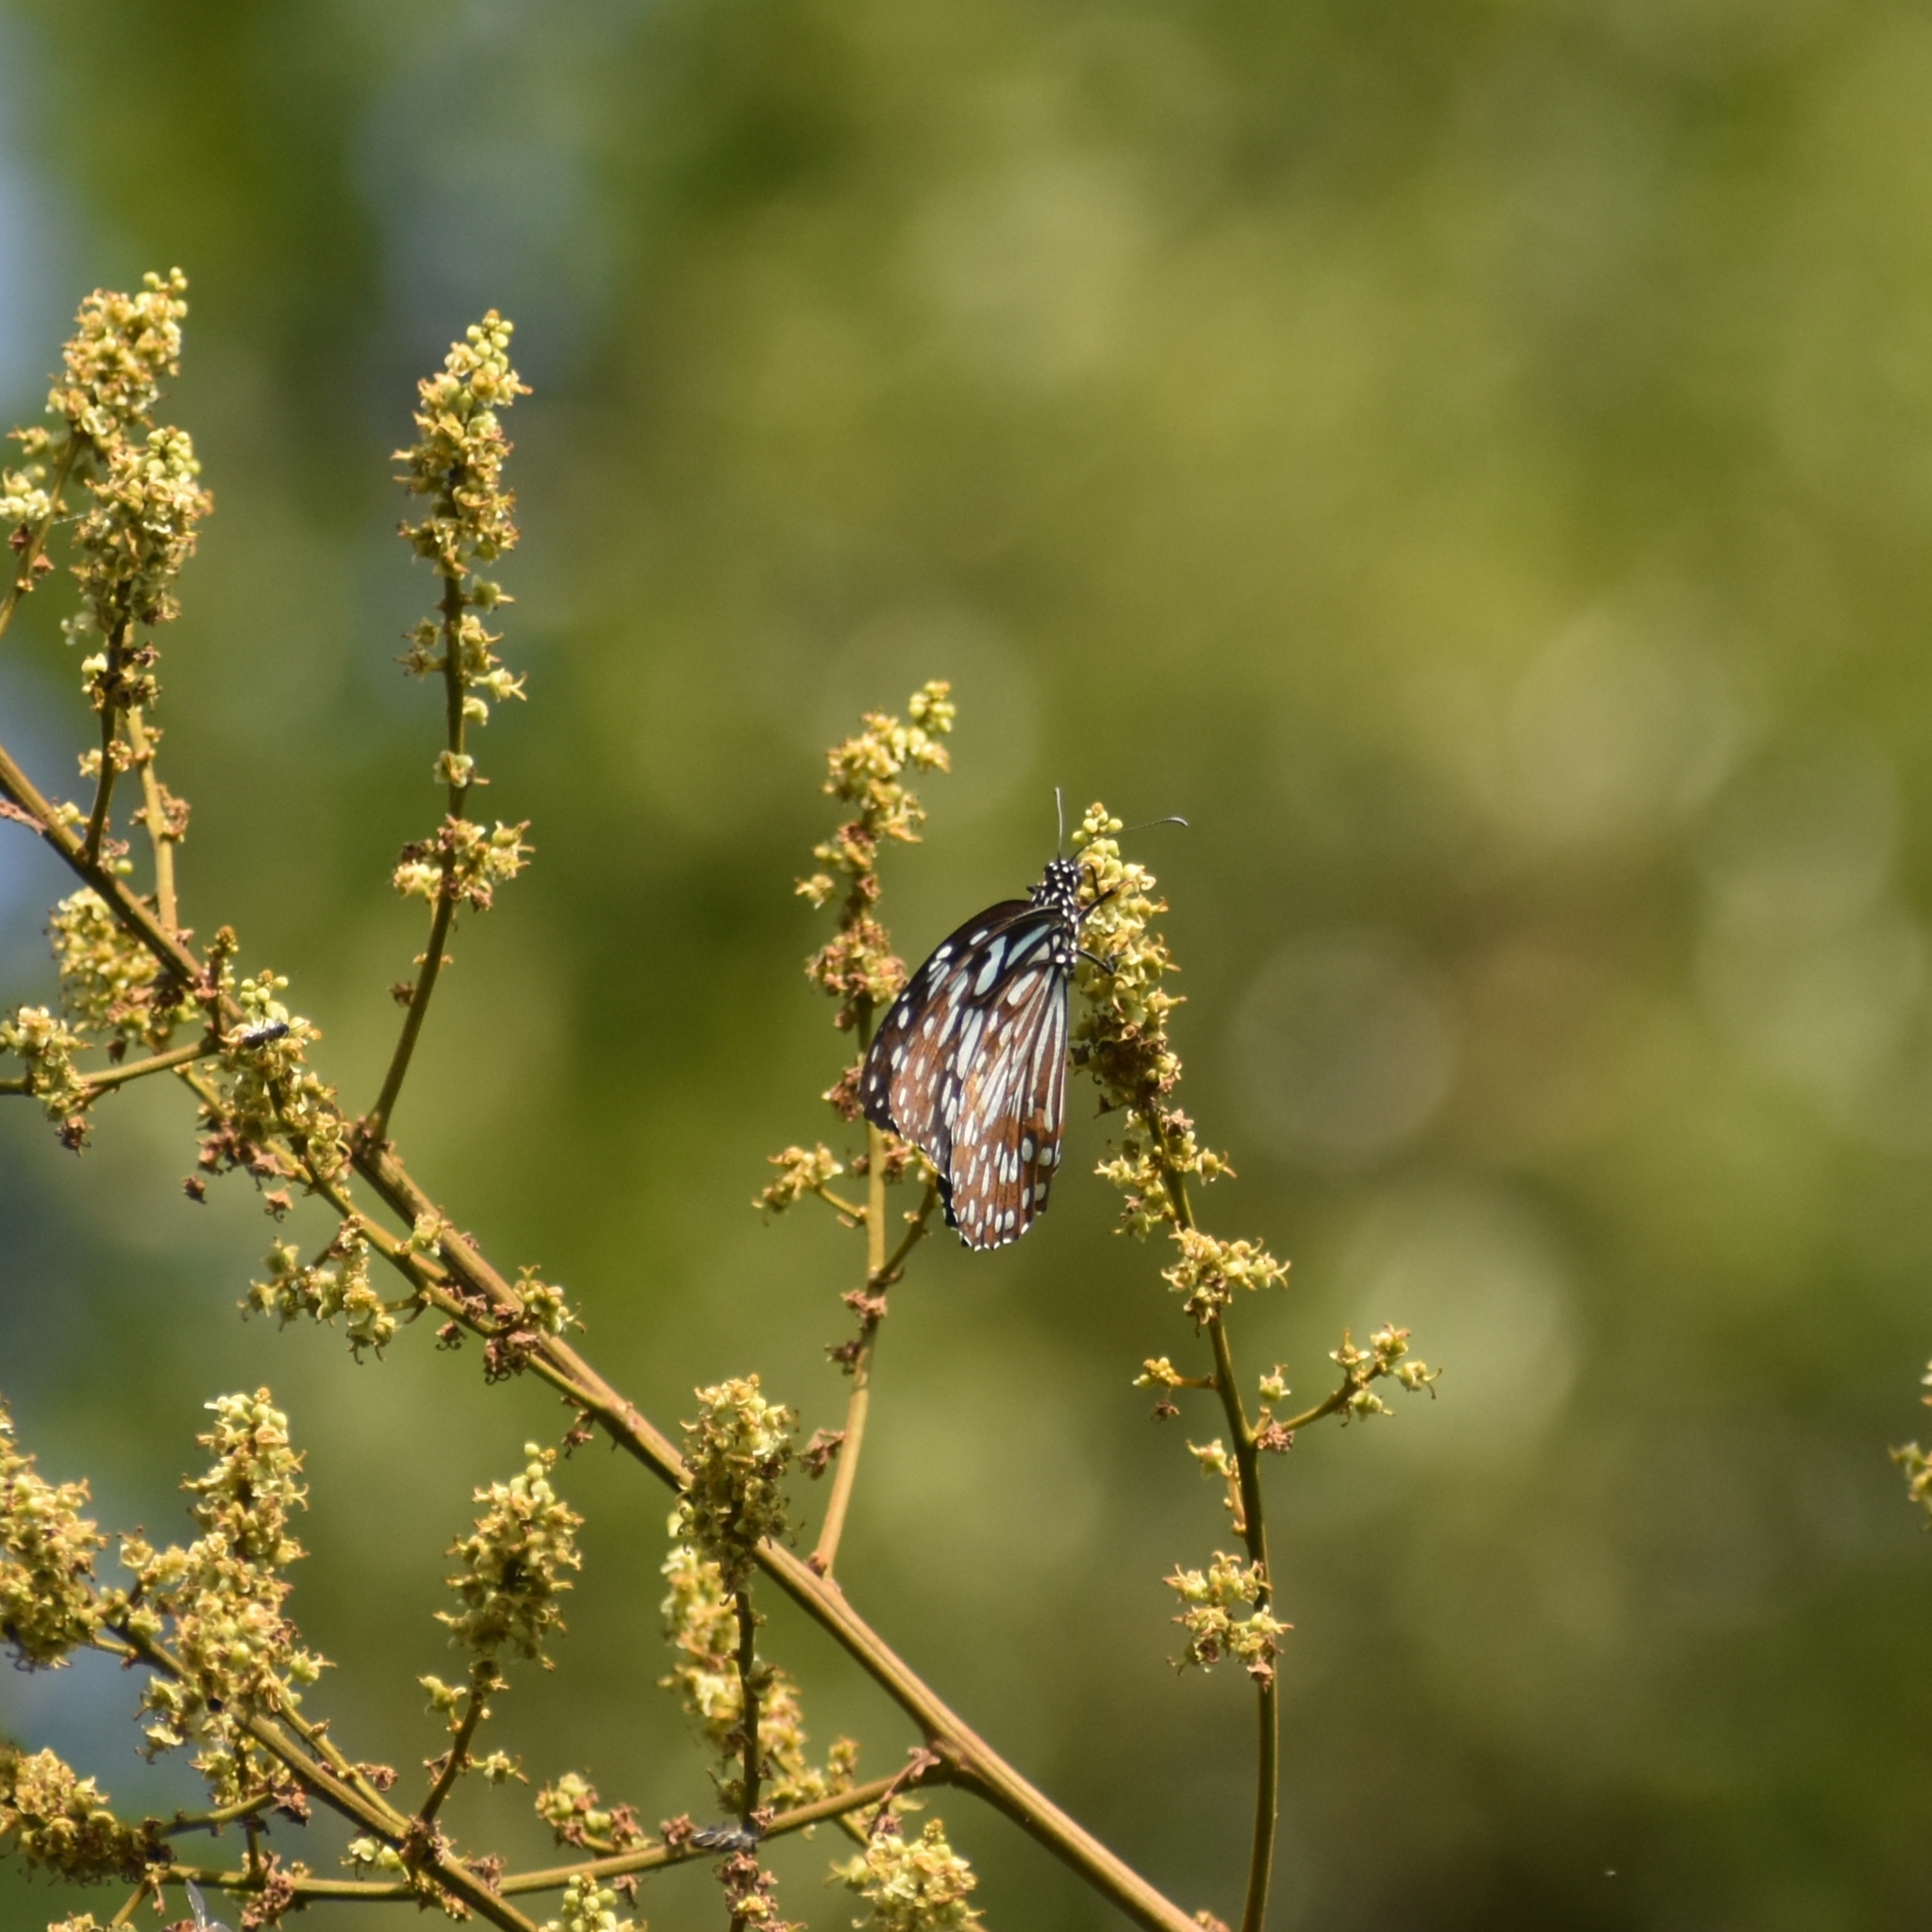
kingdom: Animalia
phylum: Arthropoda
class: Insecta
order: Lepidoptera
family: Nymphalidae
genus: Tirumala
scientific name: Tirumala limniace
